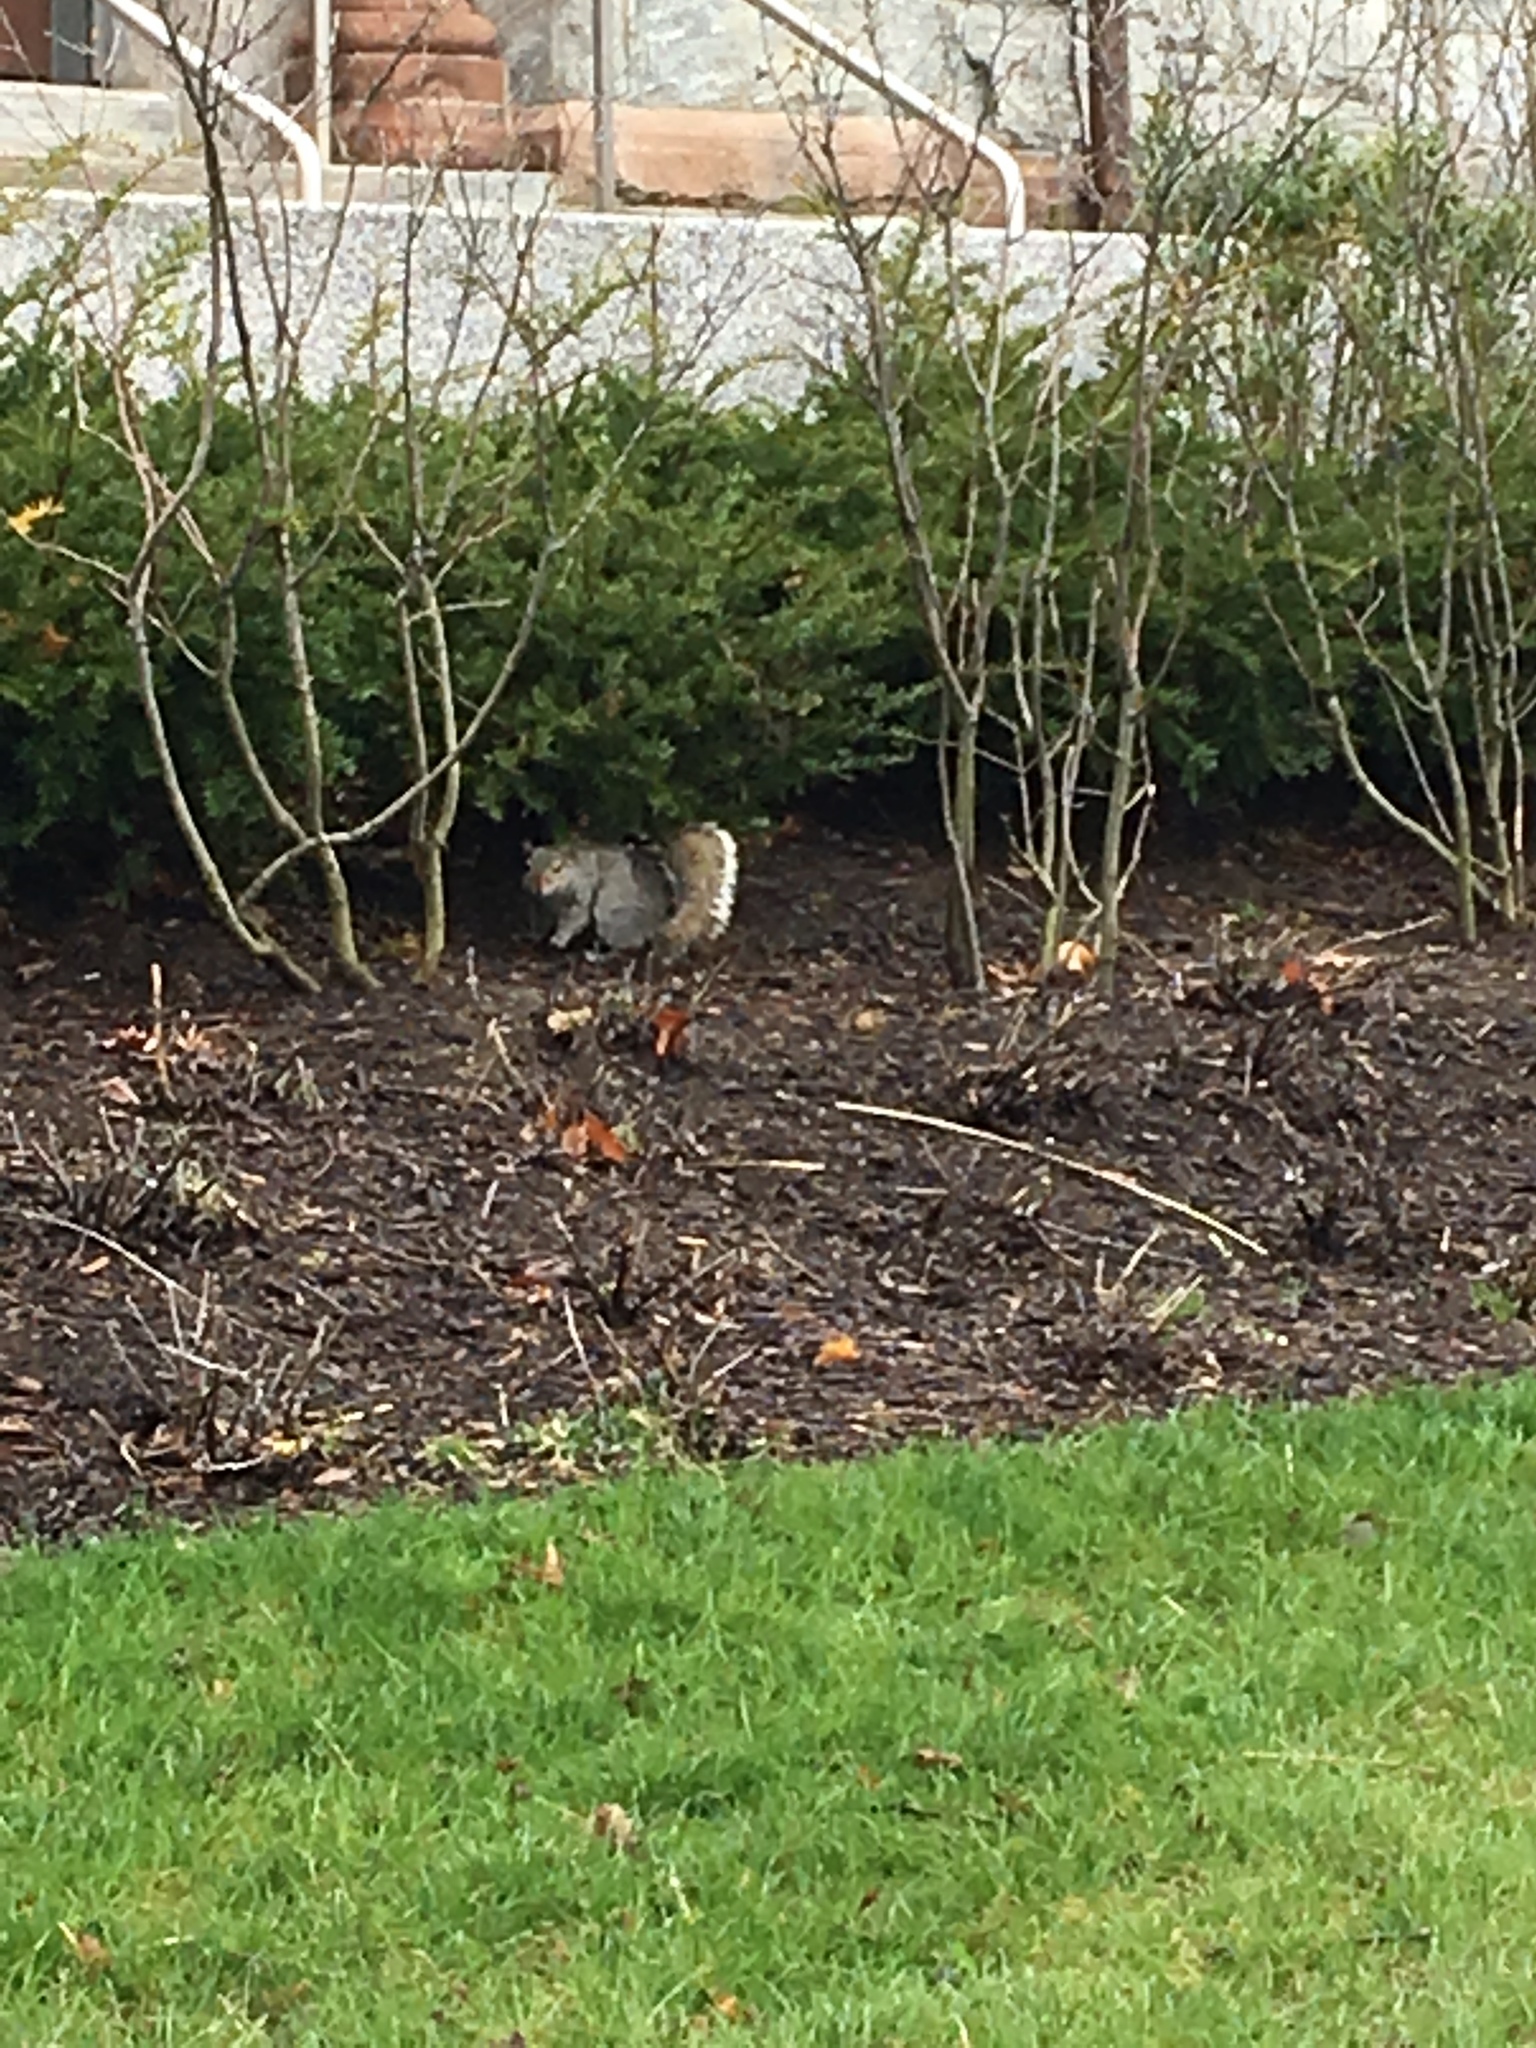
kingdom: Animalia
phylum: Chordata
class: Mammalia
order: Rodentia
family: Sciuridae
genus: Sciurus
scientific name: Sciurus carolinensis
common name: Eastern gray squirrel
